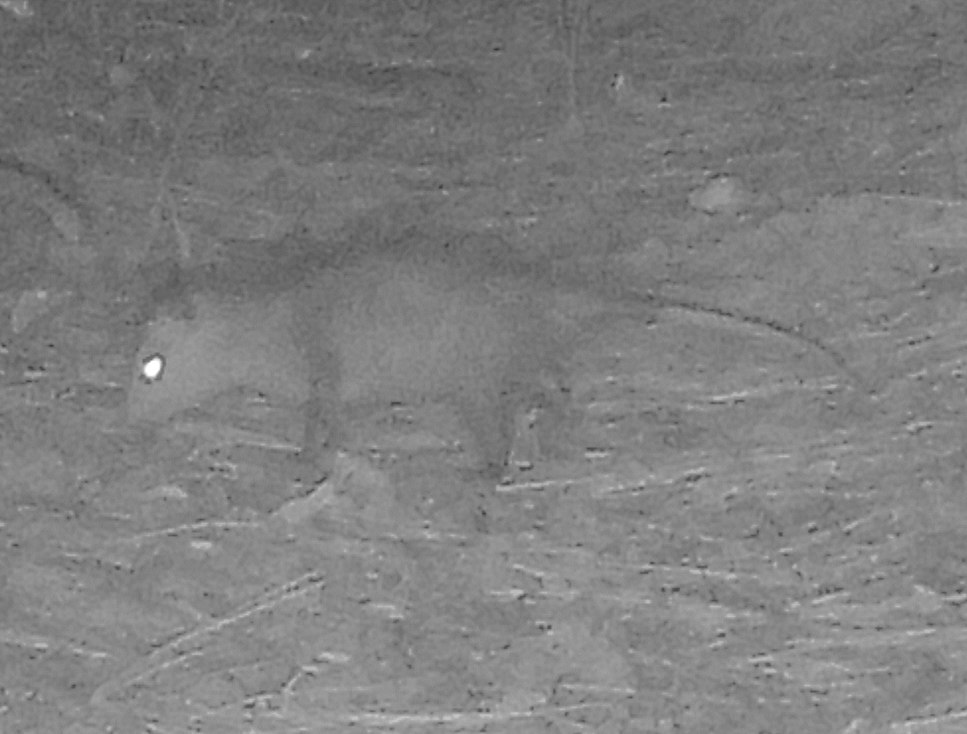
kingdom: Animalia
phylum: Chordata
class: Mammalia
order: Didelphimorphia
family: Didelphidae
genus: Didelphis
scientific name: Didelphis virginiana
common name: Virginia opossum
